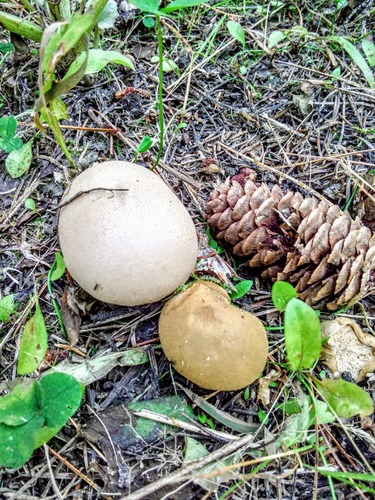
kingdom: Fungi
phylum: Basidiomycota
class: Agaricomycetes
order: Agaricales
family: Lycoperdaceae
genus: Lycoperdon
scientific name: Lycoperdon
